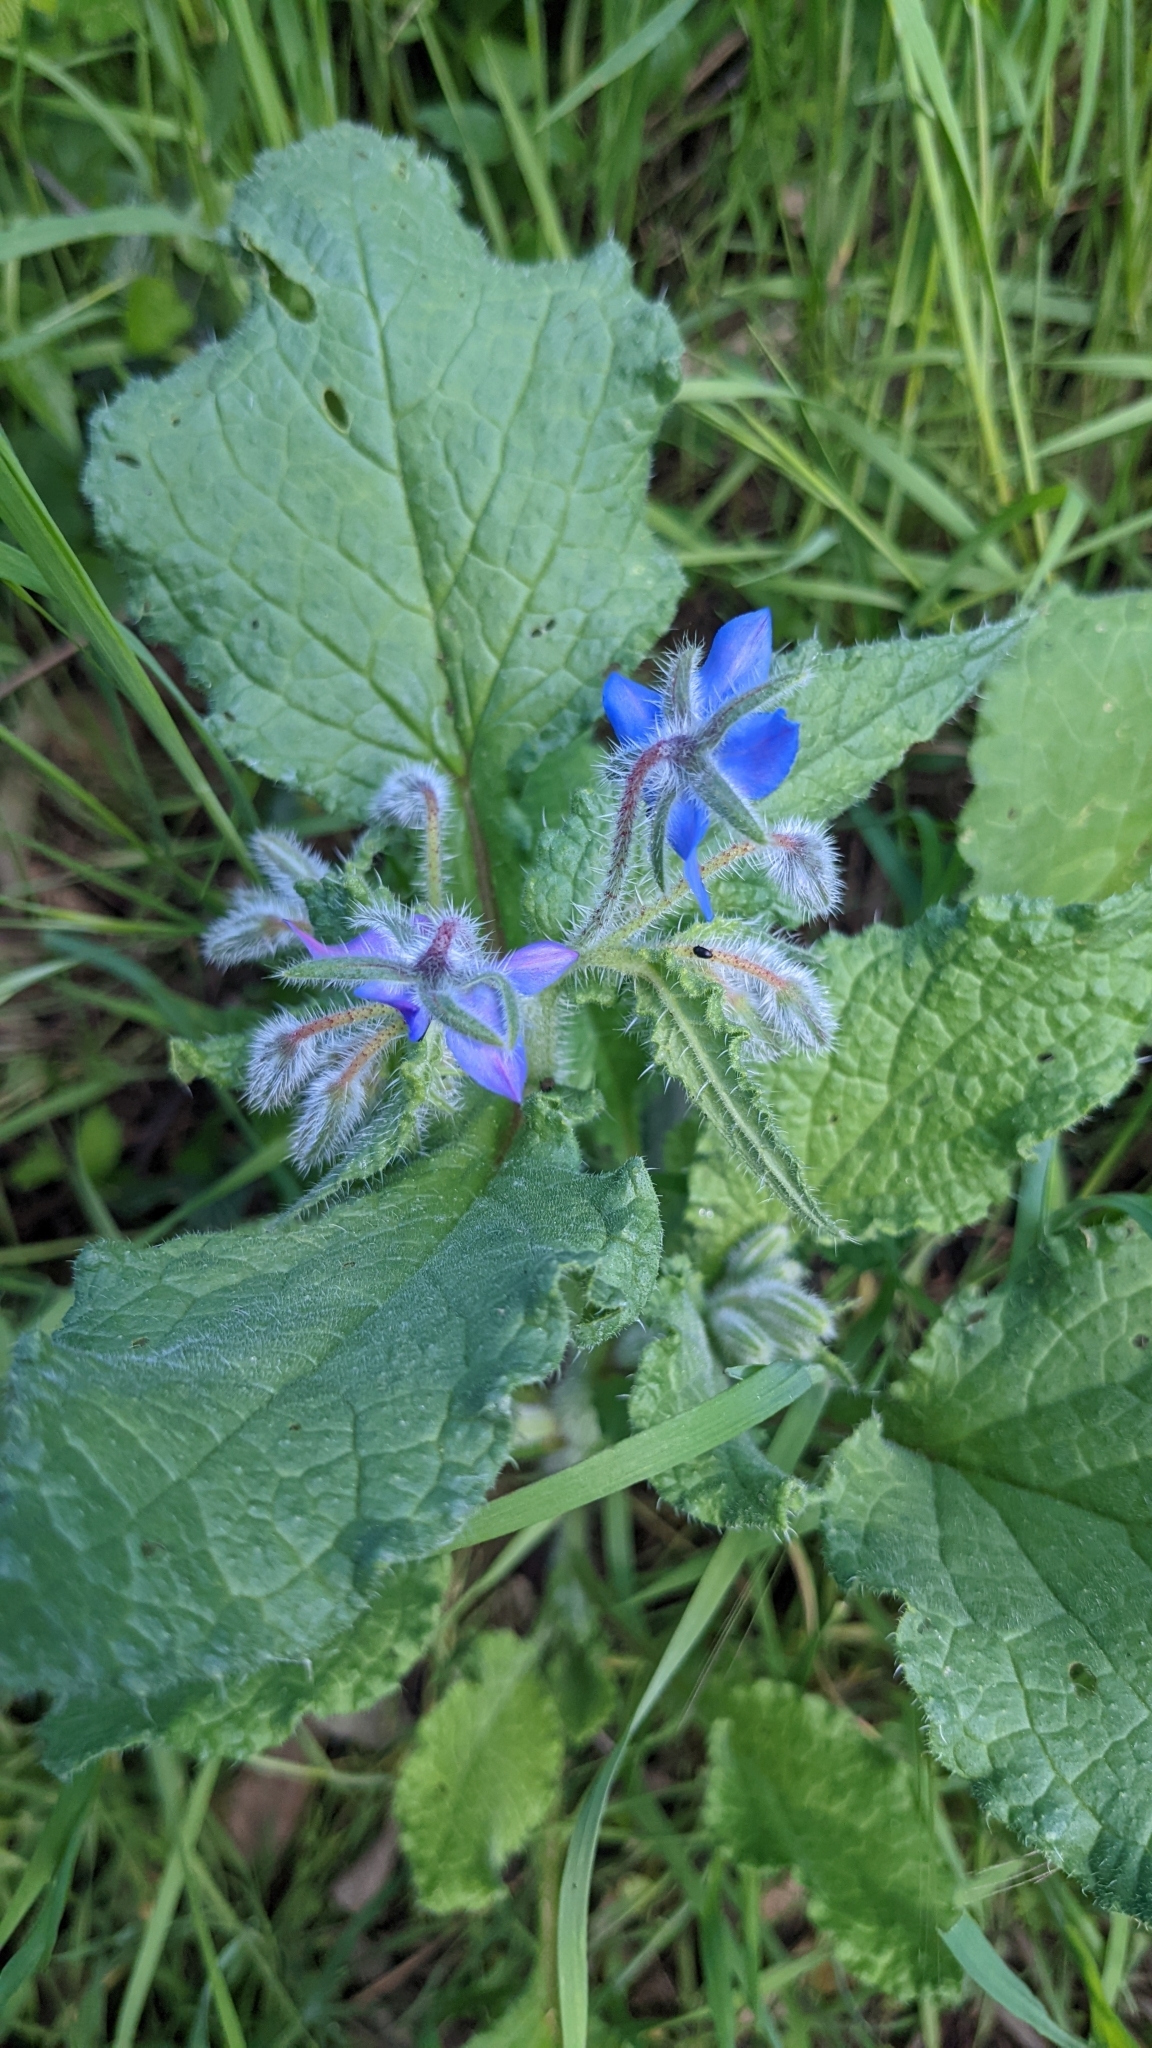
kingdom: Plantae
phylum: Tracheophyta
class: Magnoliopsida
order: Boraginales
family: Boraginaceae
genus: Borago
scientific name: Borago officinalis
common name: Borage
